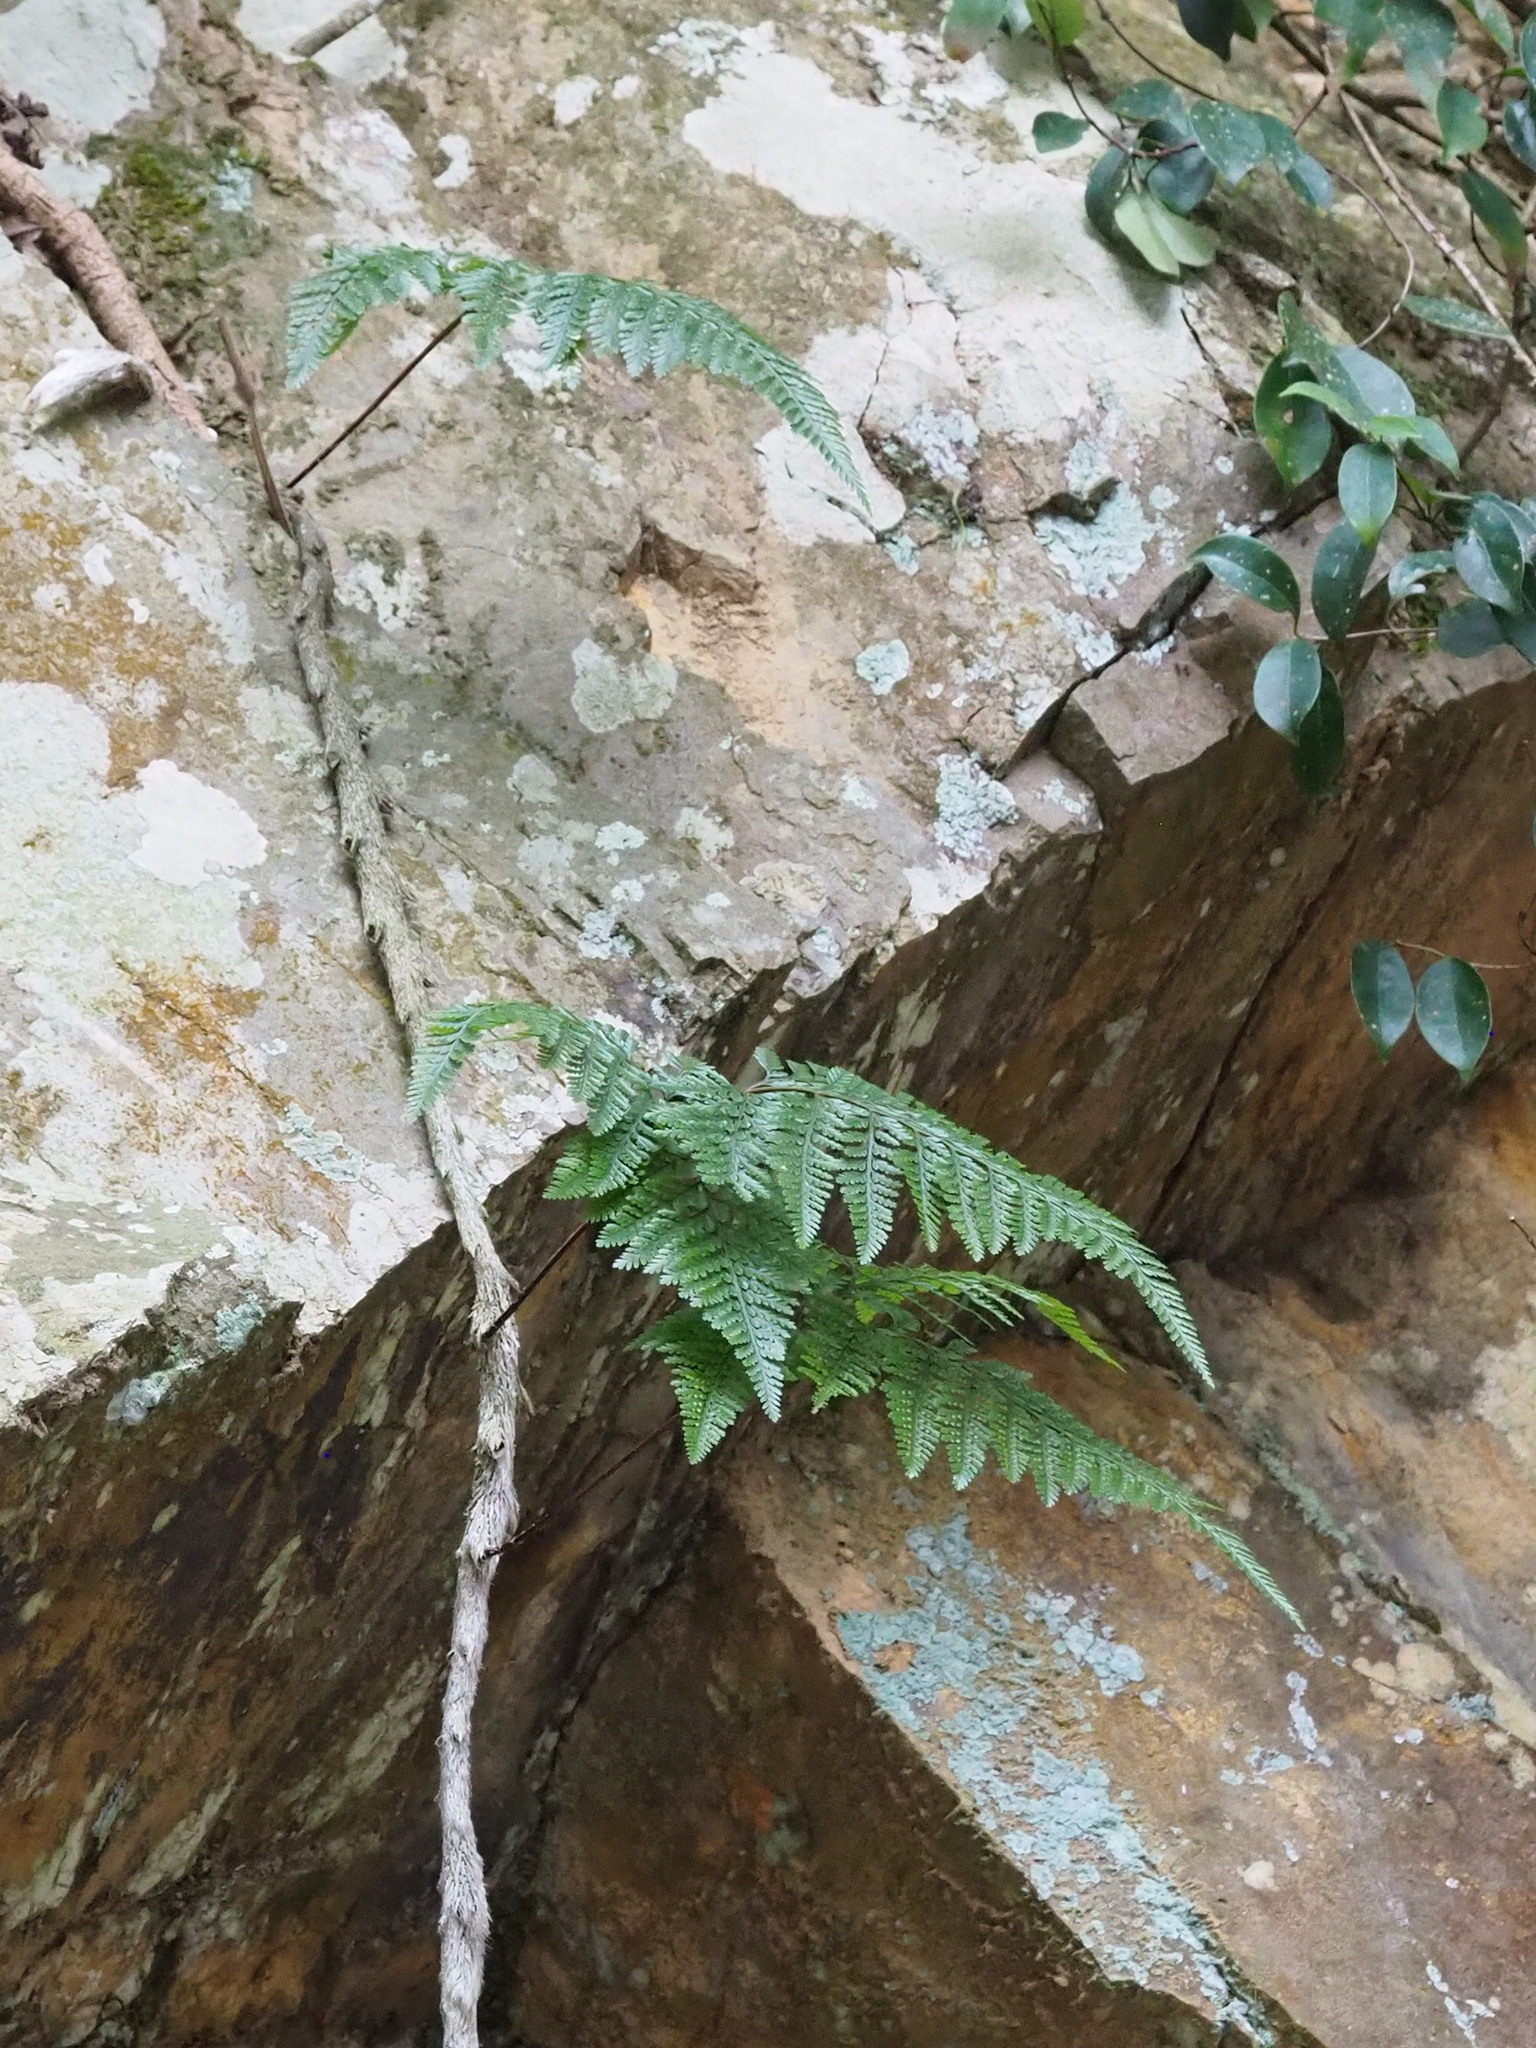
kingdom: Plantae
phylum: Tracheophyta
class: Polypodiopsida
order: Polypodiales
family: Davalliaceae
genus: Davallia
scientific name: Davallia griffithiana
